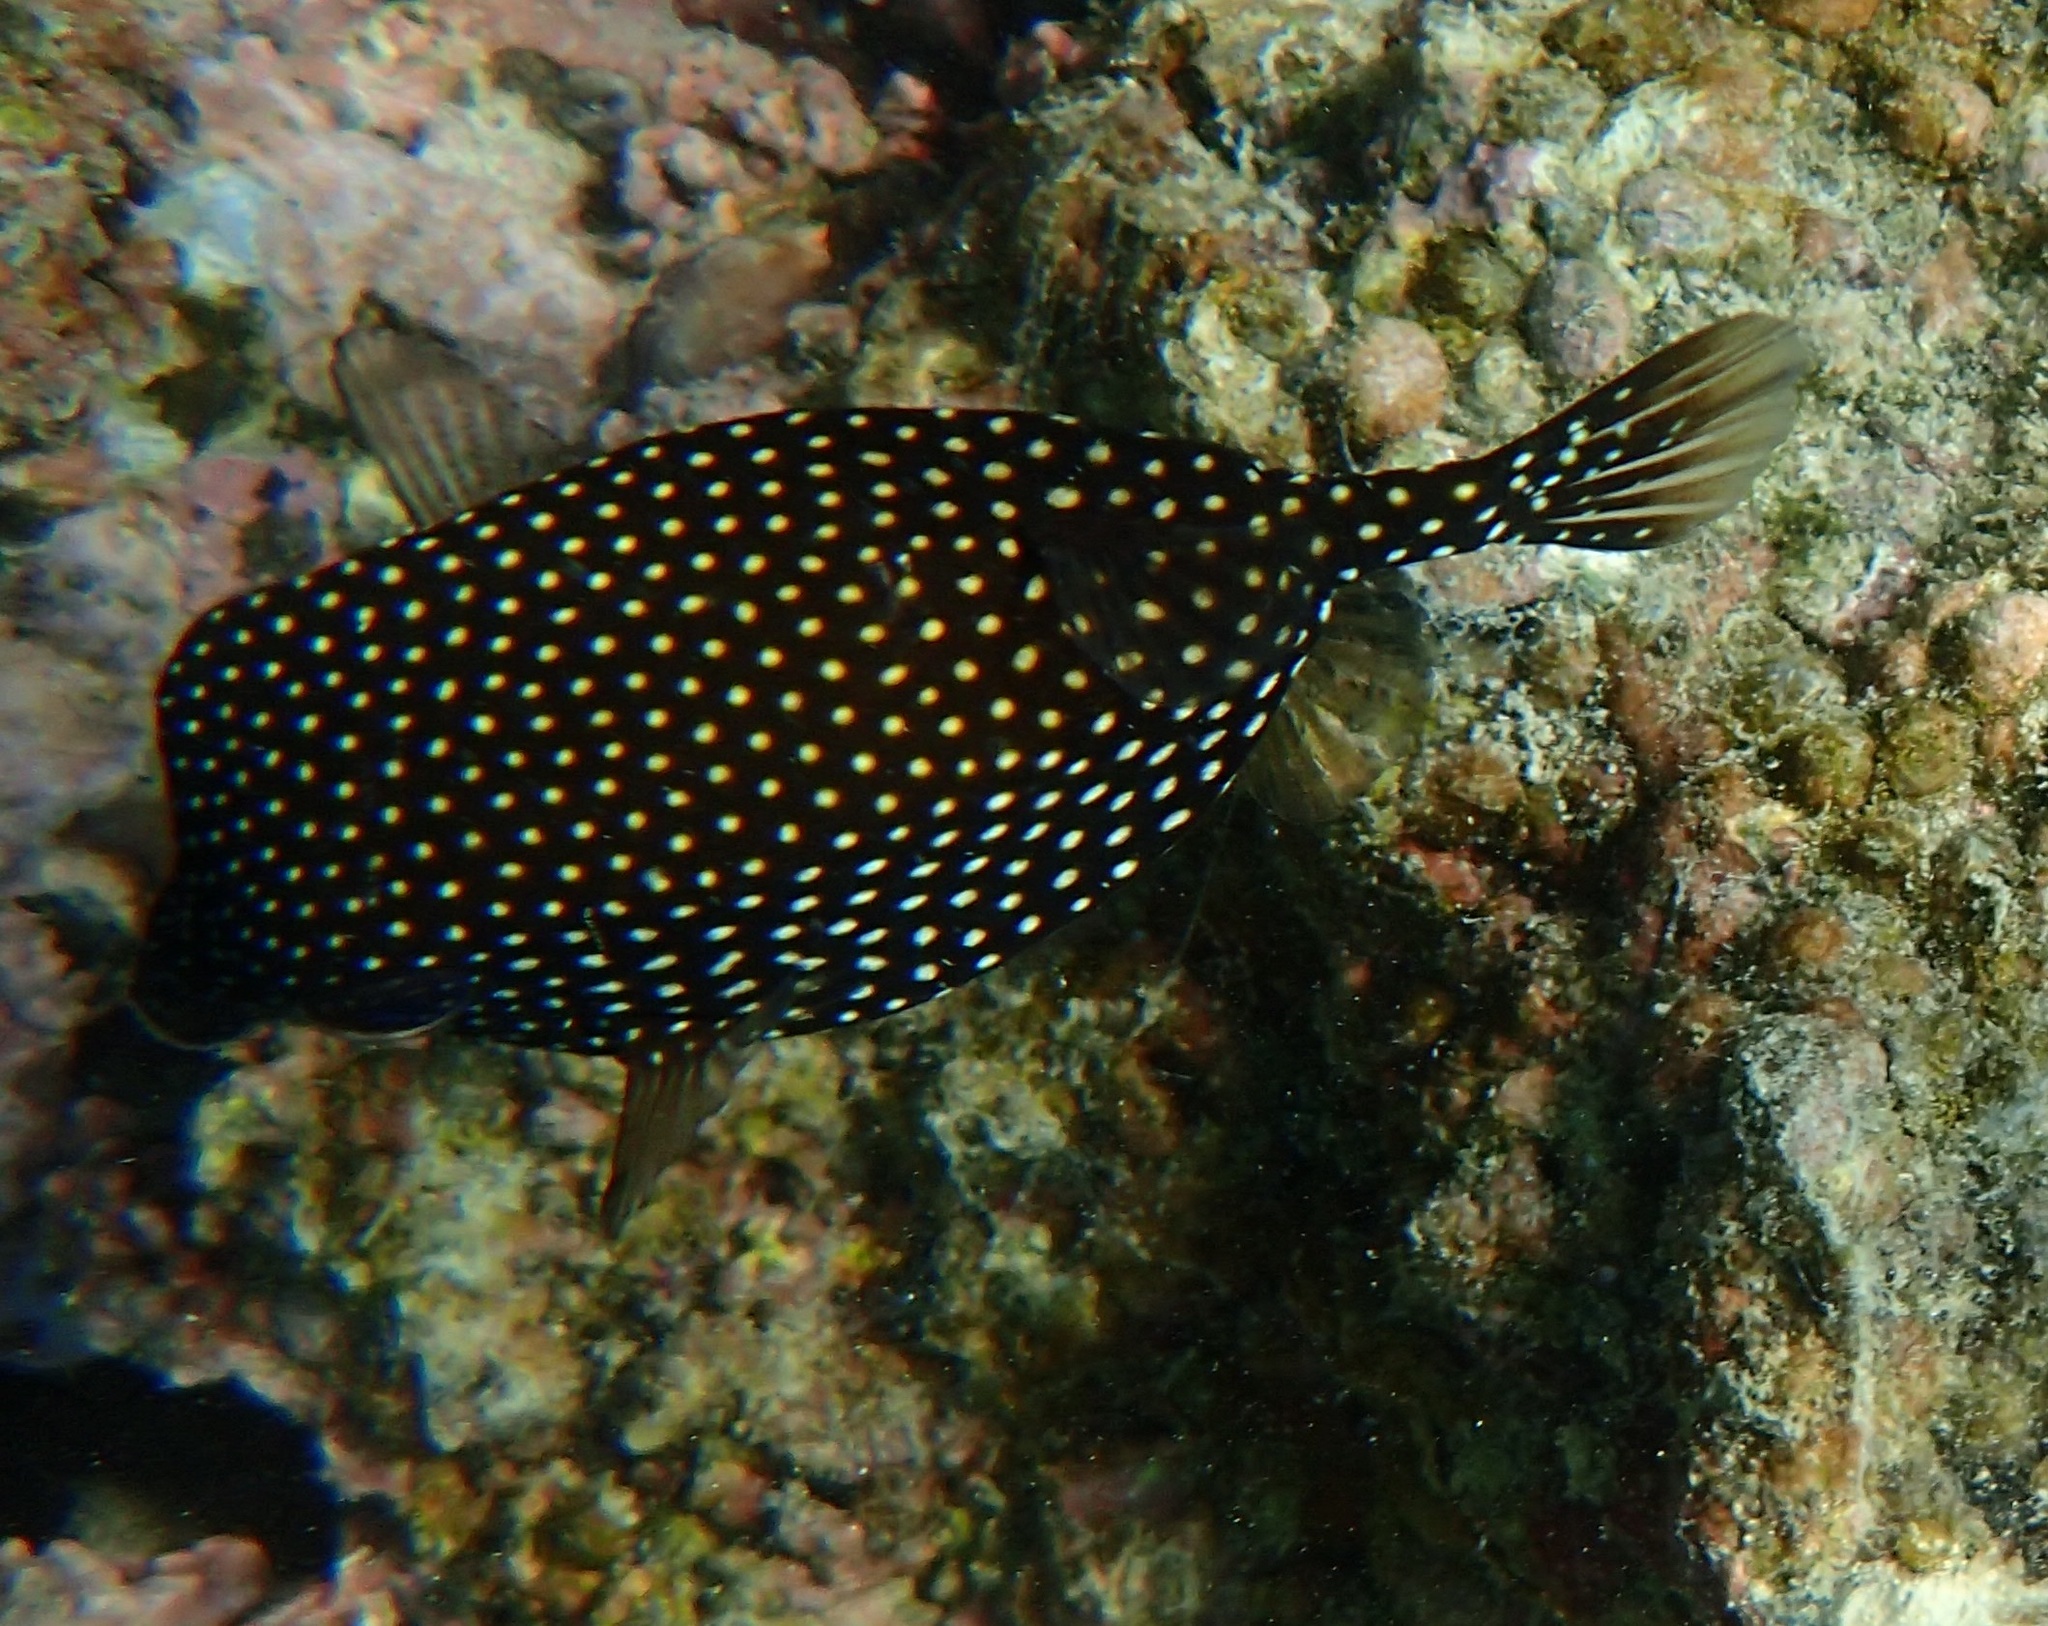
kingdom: Animalia
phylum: Chordata
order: Tetraodontiformes
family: Ostraciidae
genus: Ostracion
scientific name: Ostracion meleagris
